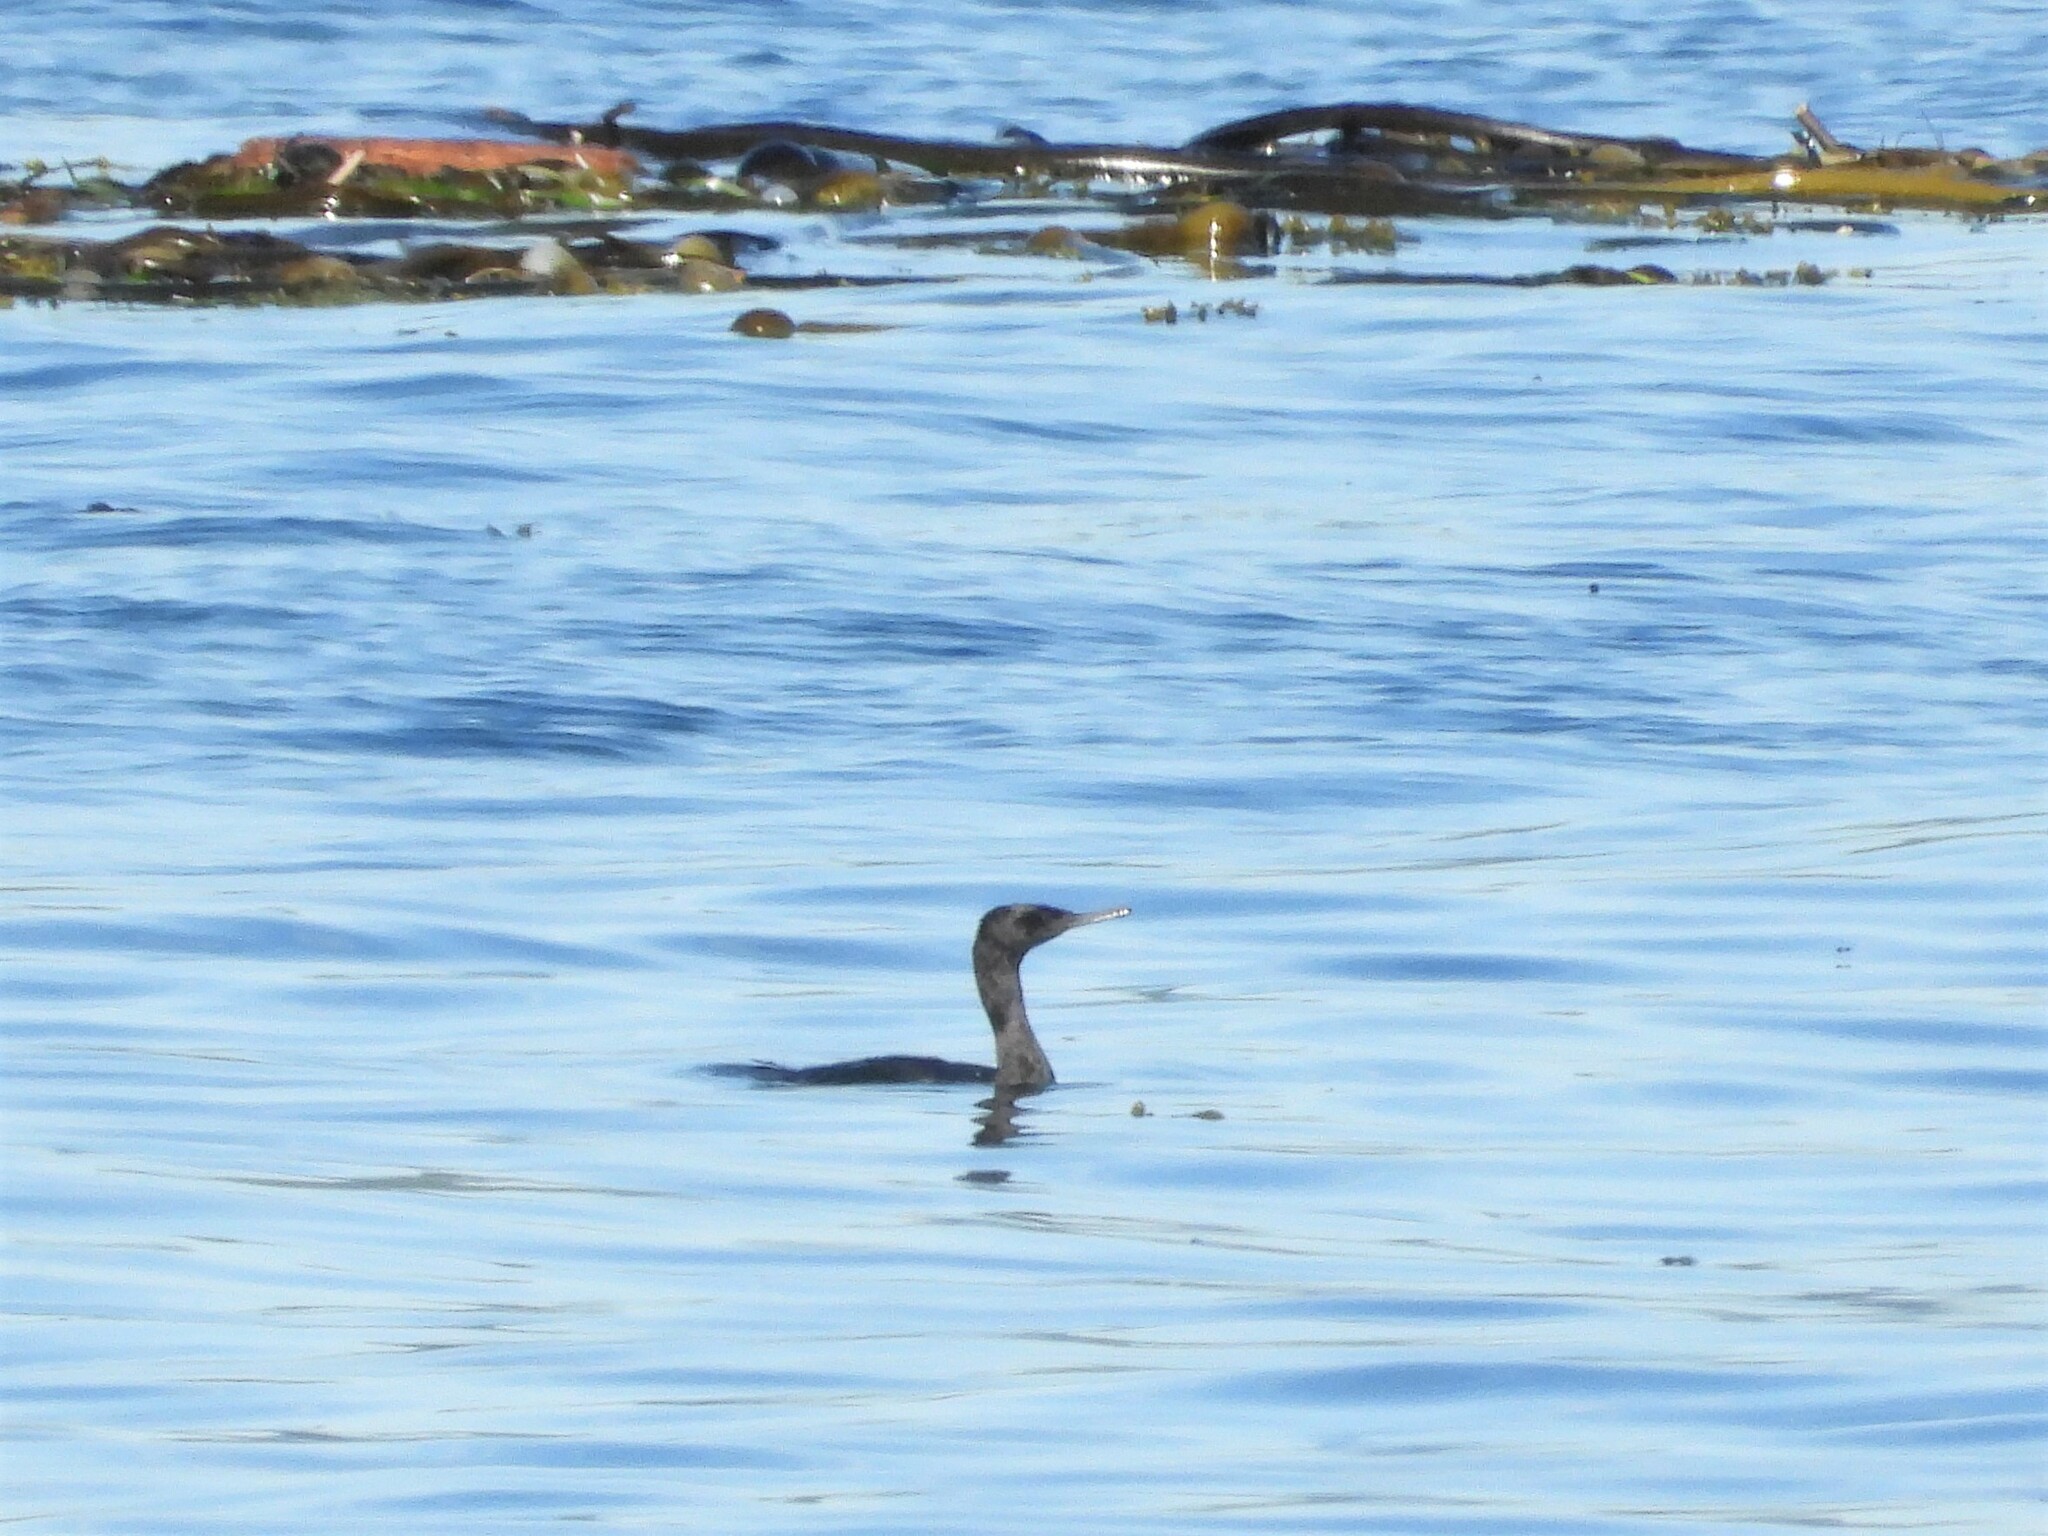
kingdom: Animalia
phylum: Chordata
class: Aves
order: Suliformes
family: Phalacrocoracidae
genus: Phalacrocorax
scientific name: Phalacrocorax pelagicus
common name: Pelagic cormorant
